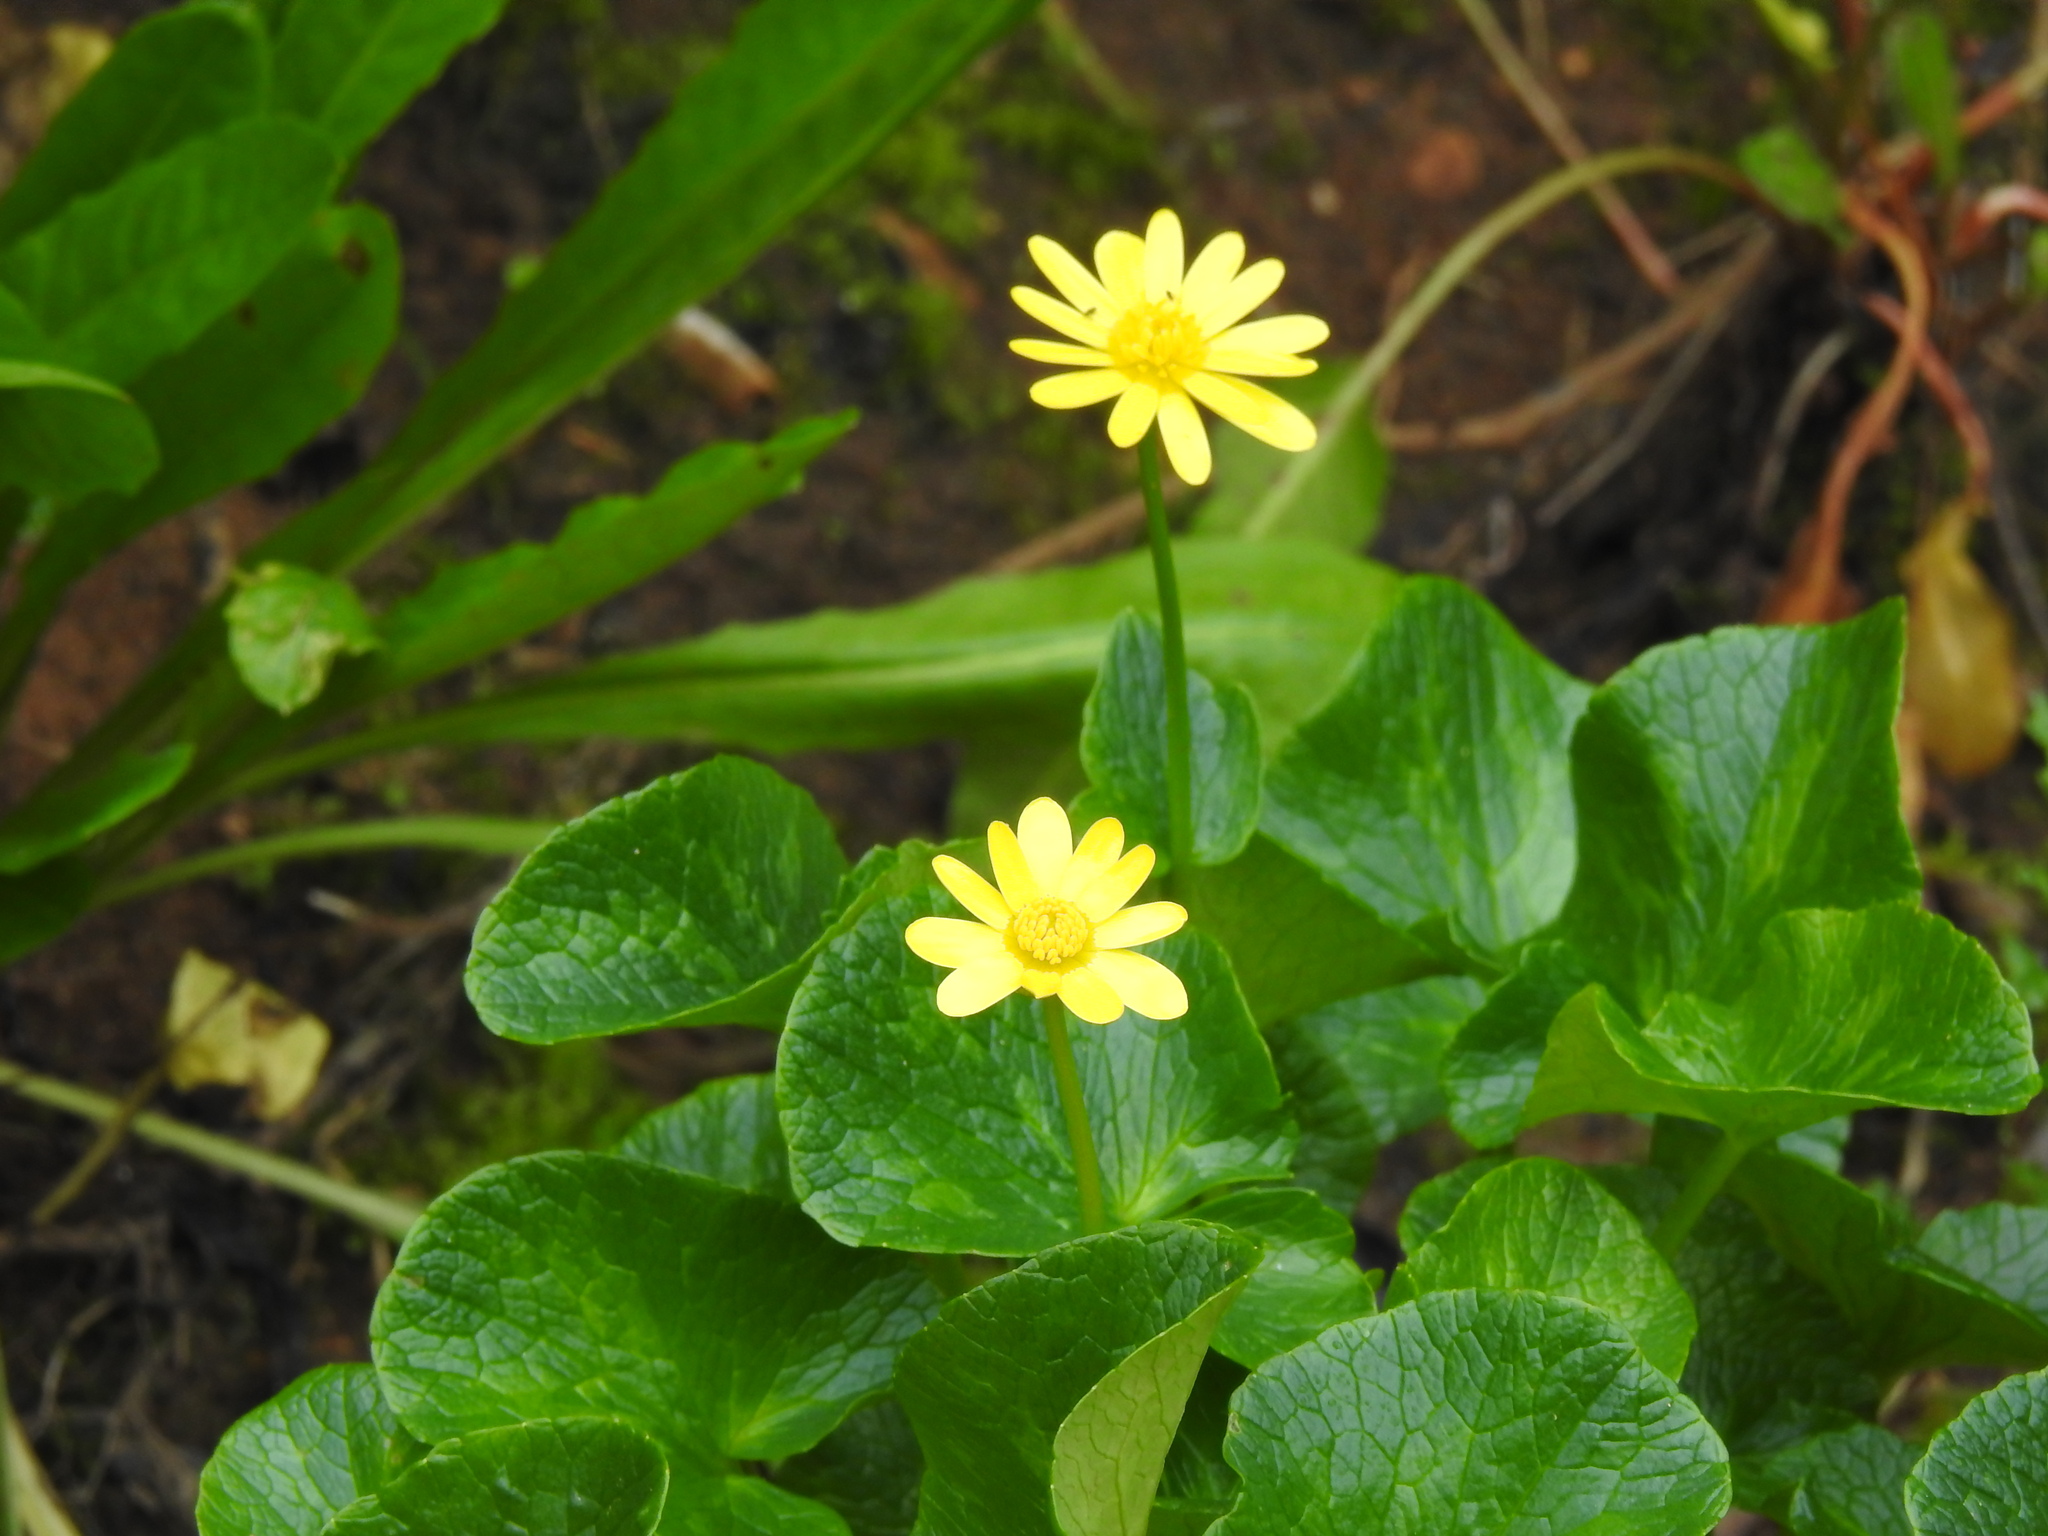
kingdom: Plantae
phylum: Tracheophyta
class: Magnoliopsida
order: Ranunculales
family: Ranunculaceae
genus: Ficaria
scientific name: Ficaria verna
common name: Lesser celandine
